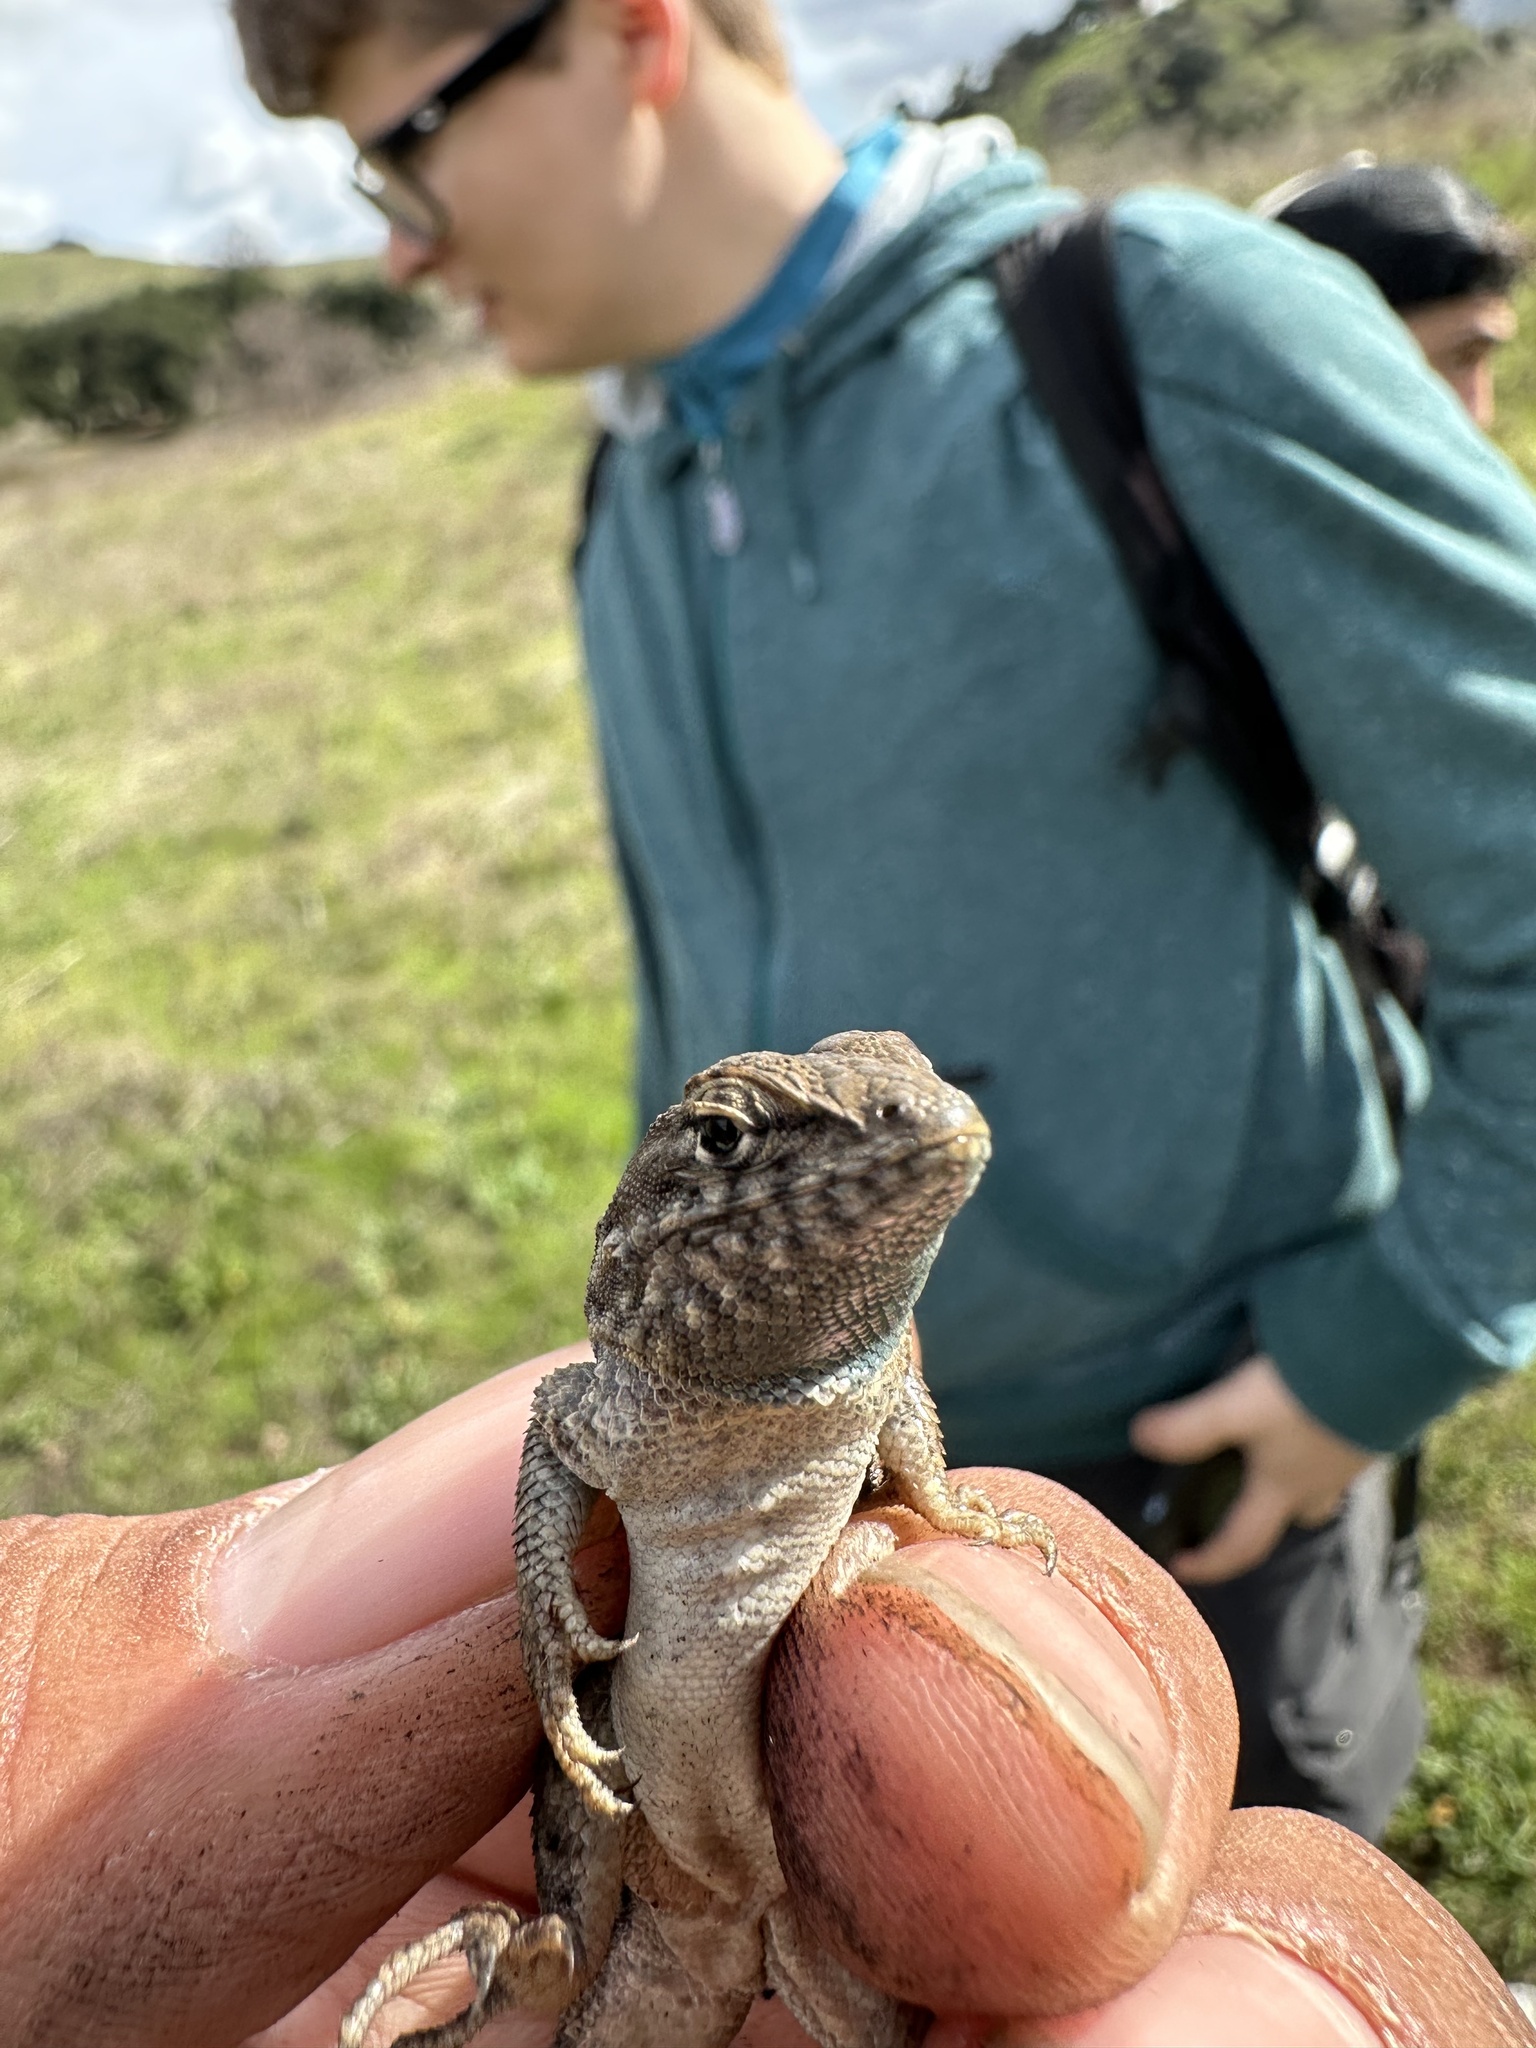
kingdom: Animalia
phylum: Chordata
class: Squamata
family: Phrynosomatidae
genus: Uta
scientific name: Uta stansburiana
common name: Side-blotched lizard
